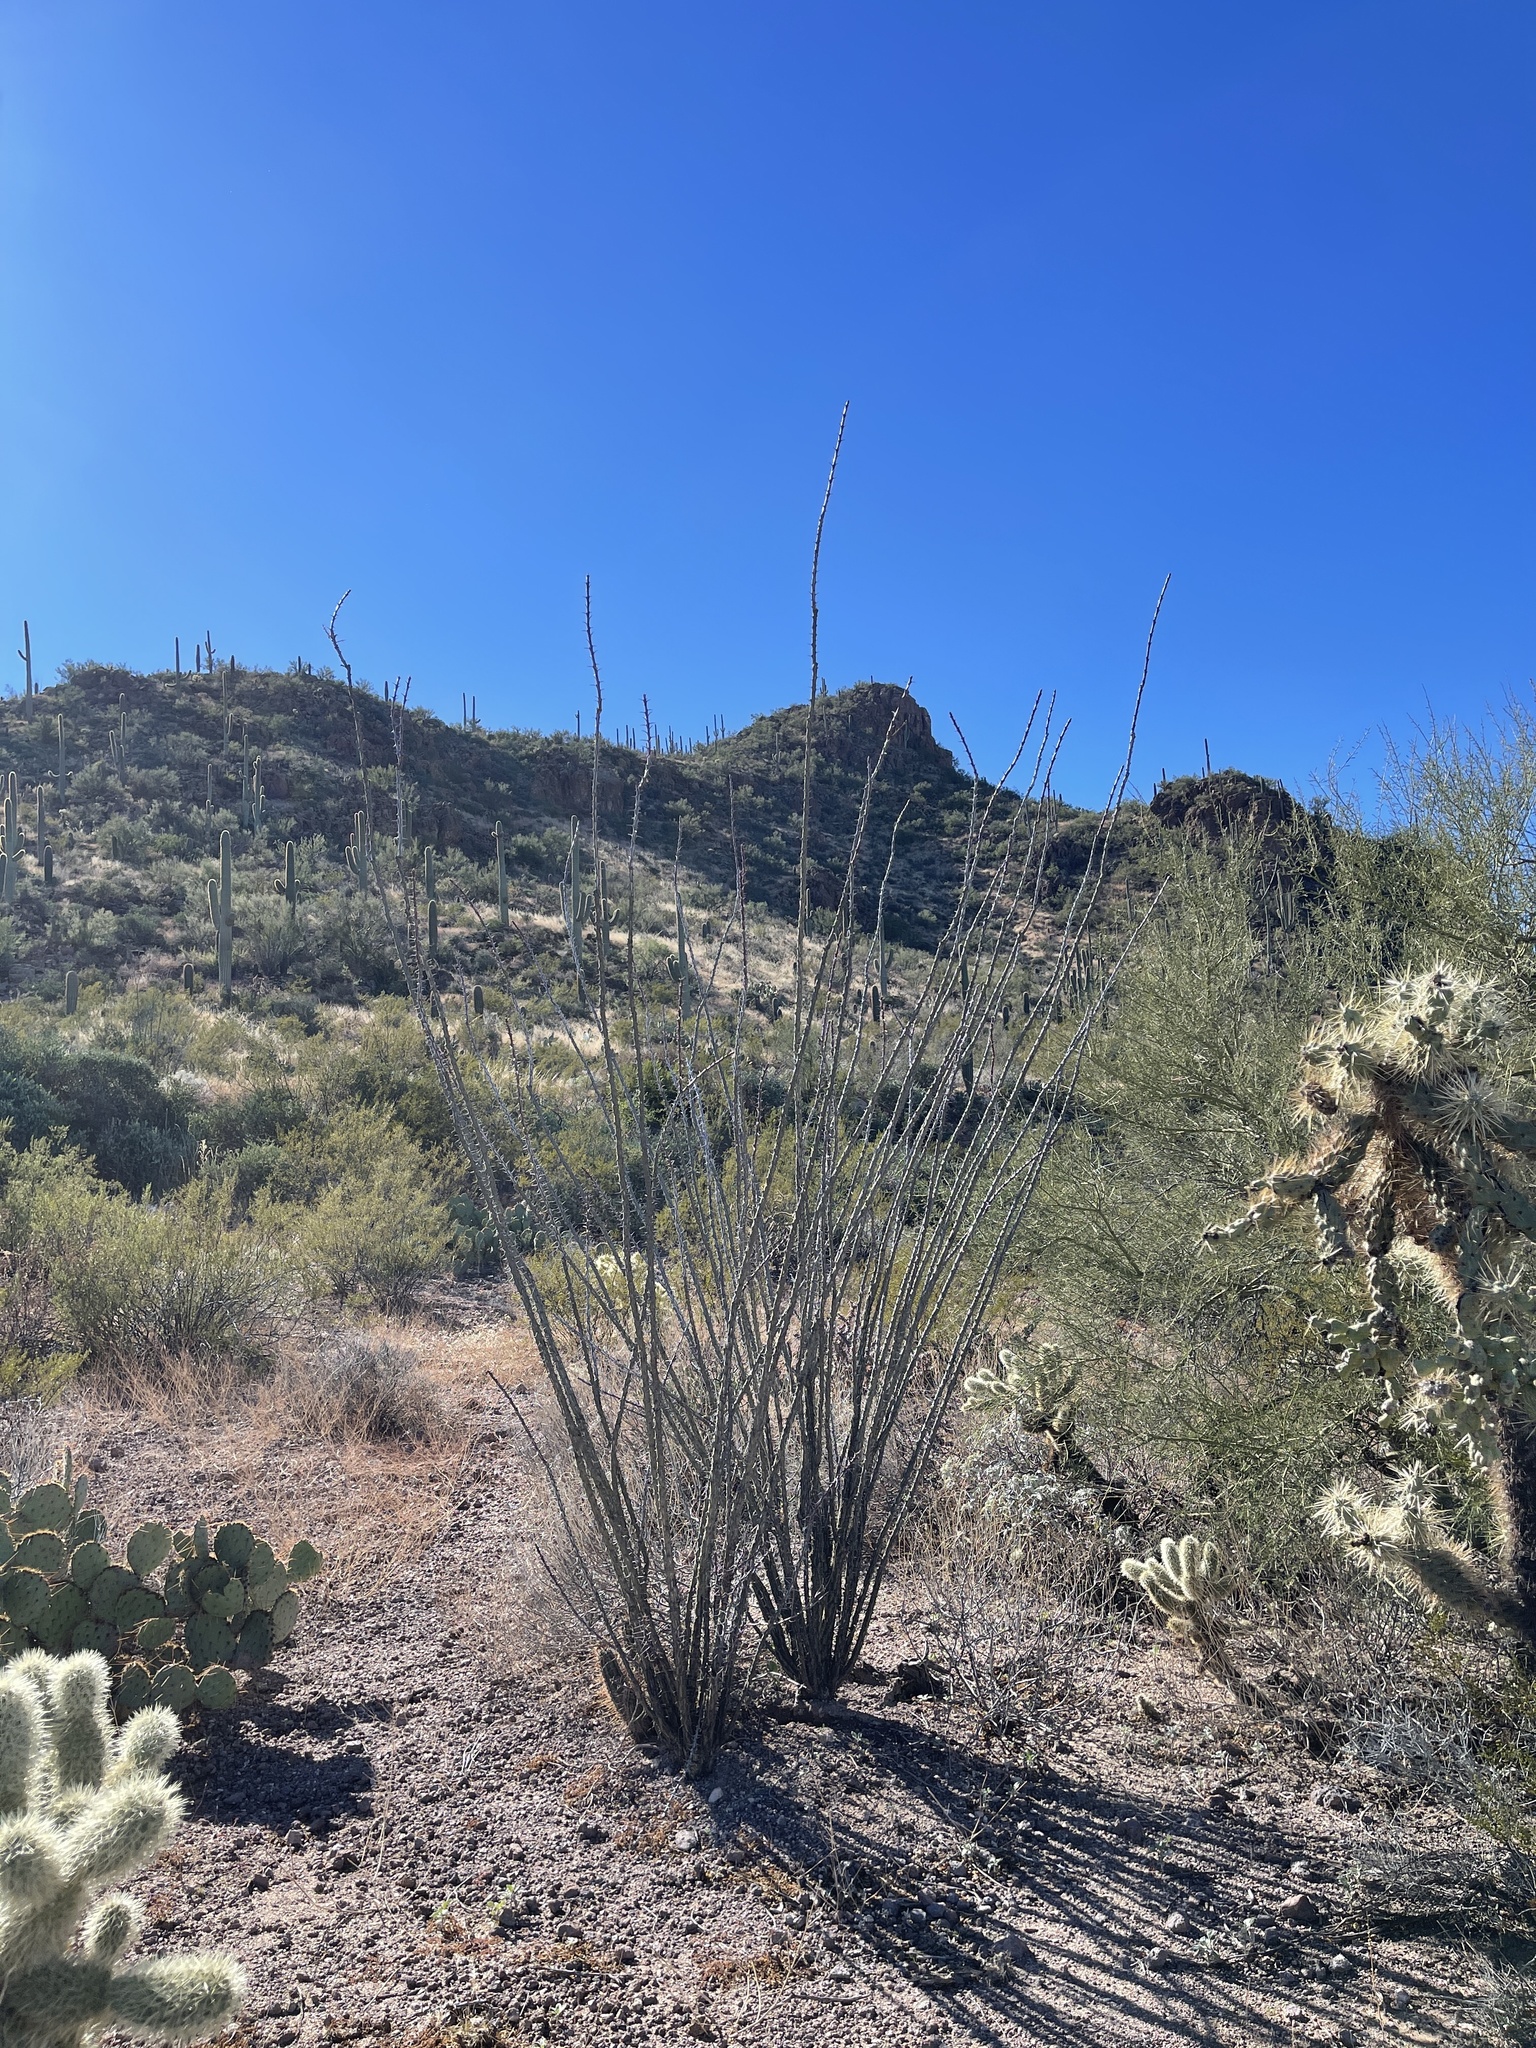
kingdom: Plantae
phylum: Tracheophyta
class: Magnoliopsida
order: Ericales
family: Fouquieriaceae
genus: Fouquieria
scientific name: Fouquieria splendens
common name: Vine-cactus
